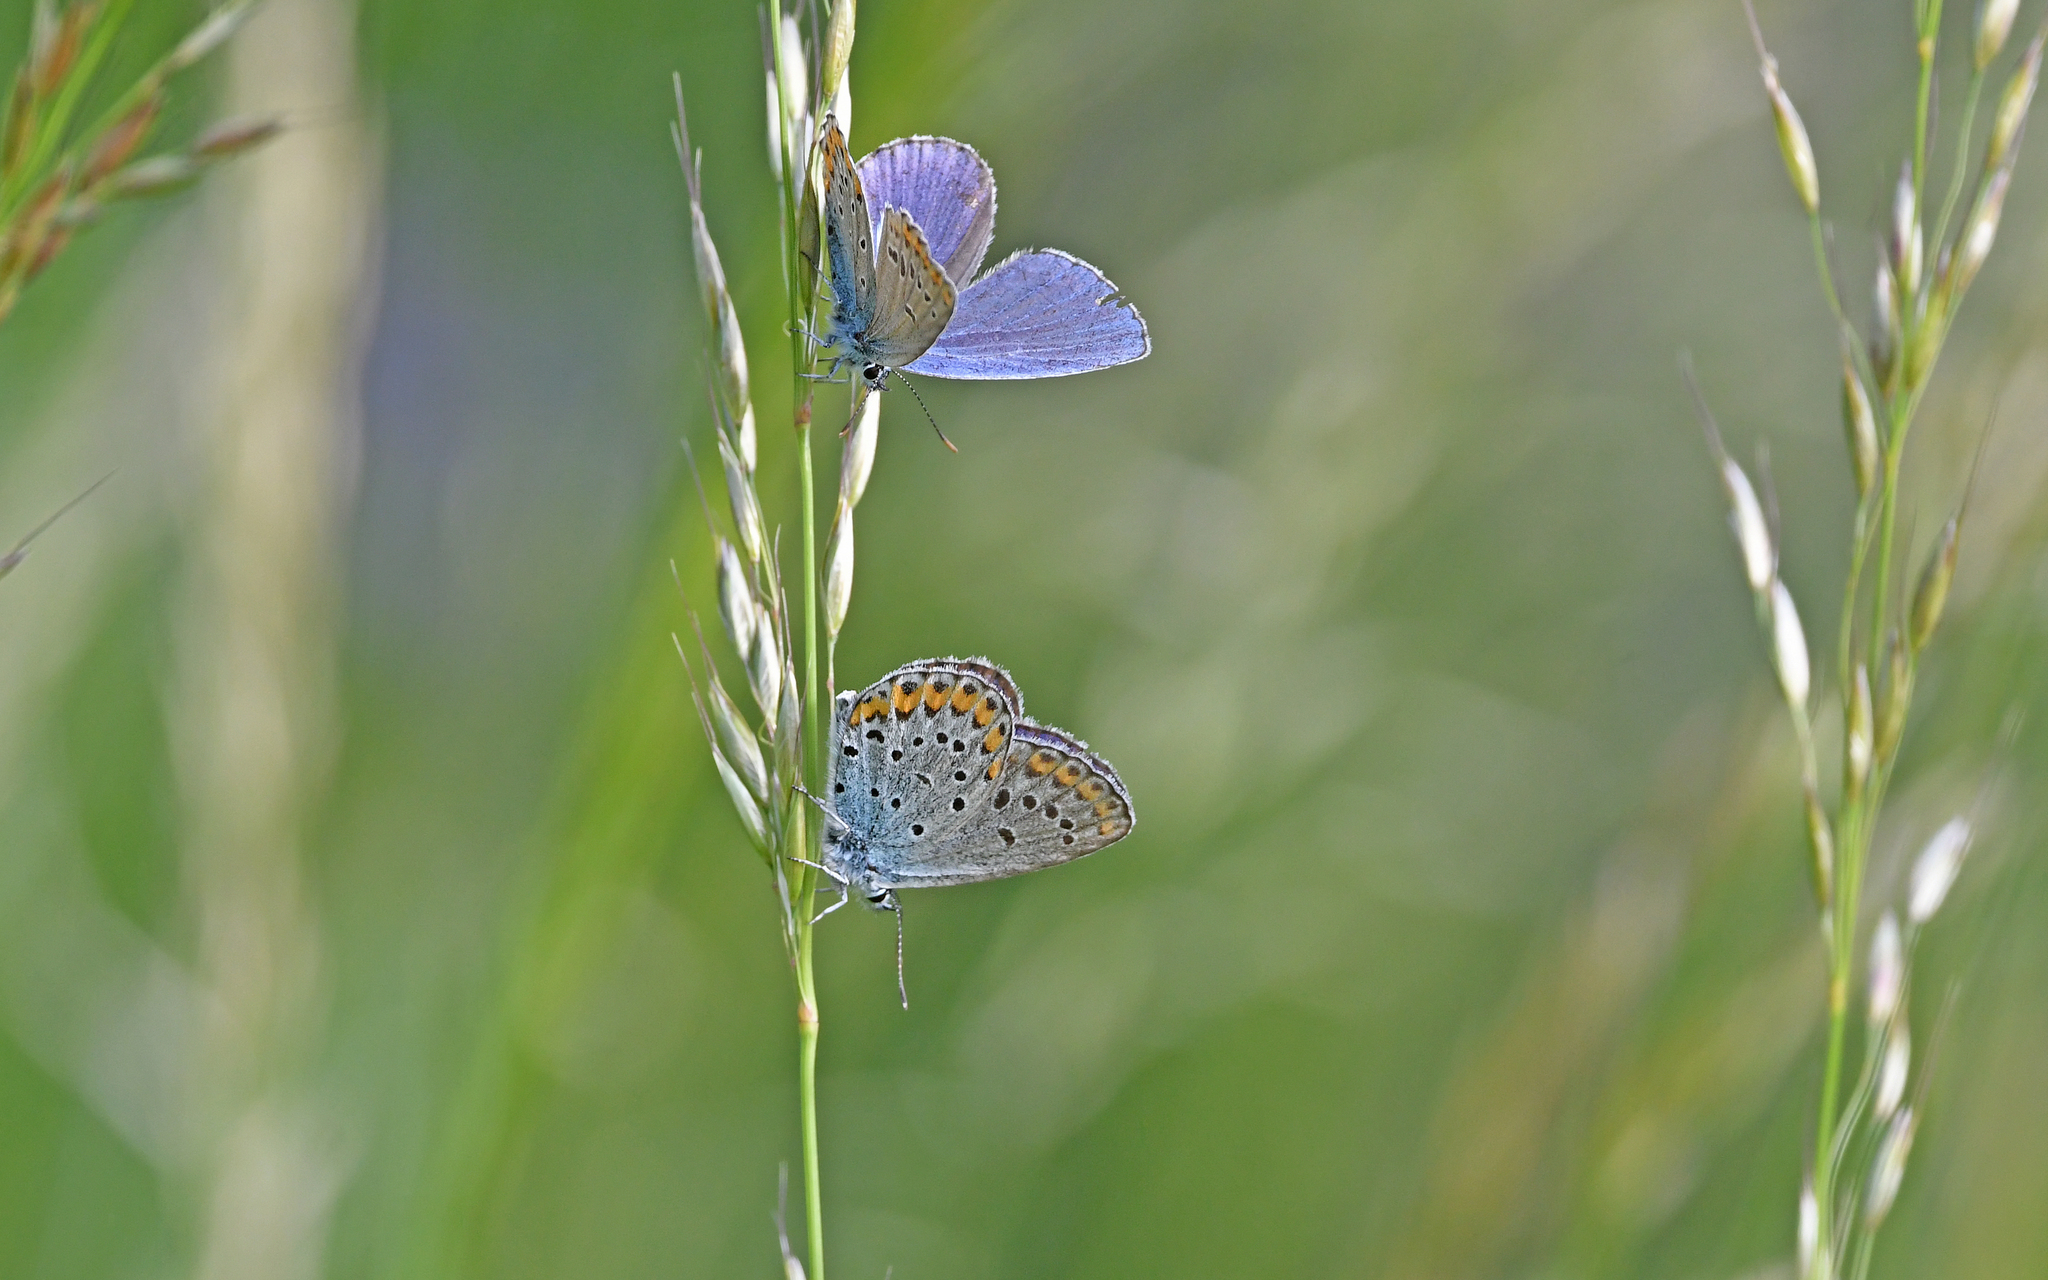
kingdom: Animalia
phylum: Arthropoda
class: Insecta
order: Lepidoptera
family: Lycaenidae
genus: Plebejus
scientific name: Plebejus argyrognomon
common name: Reverdin's blue
